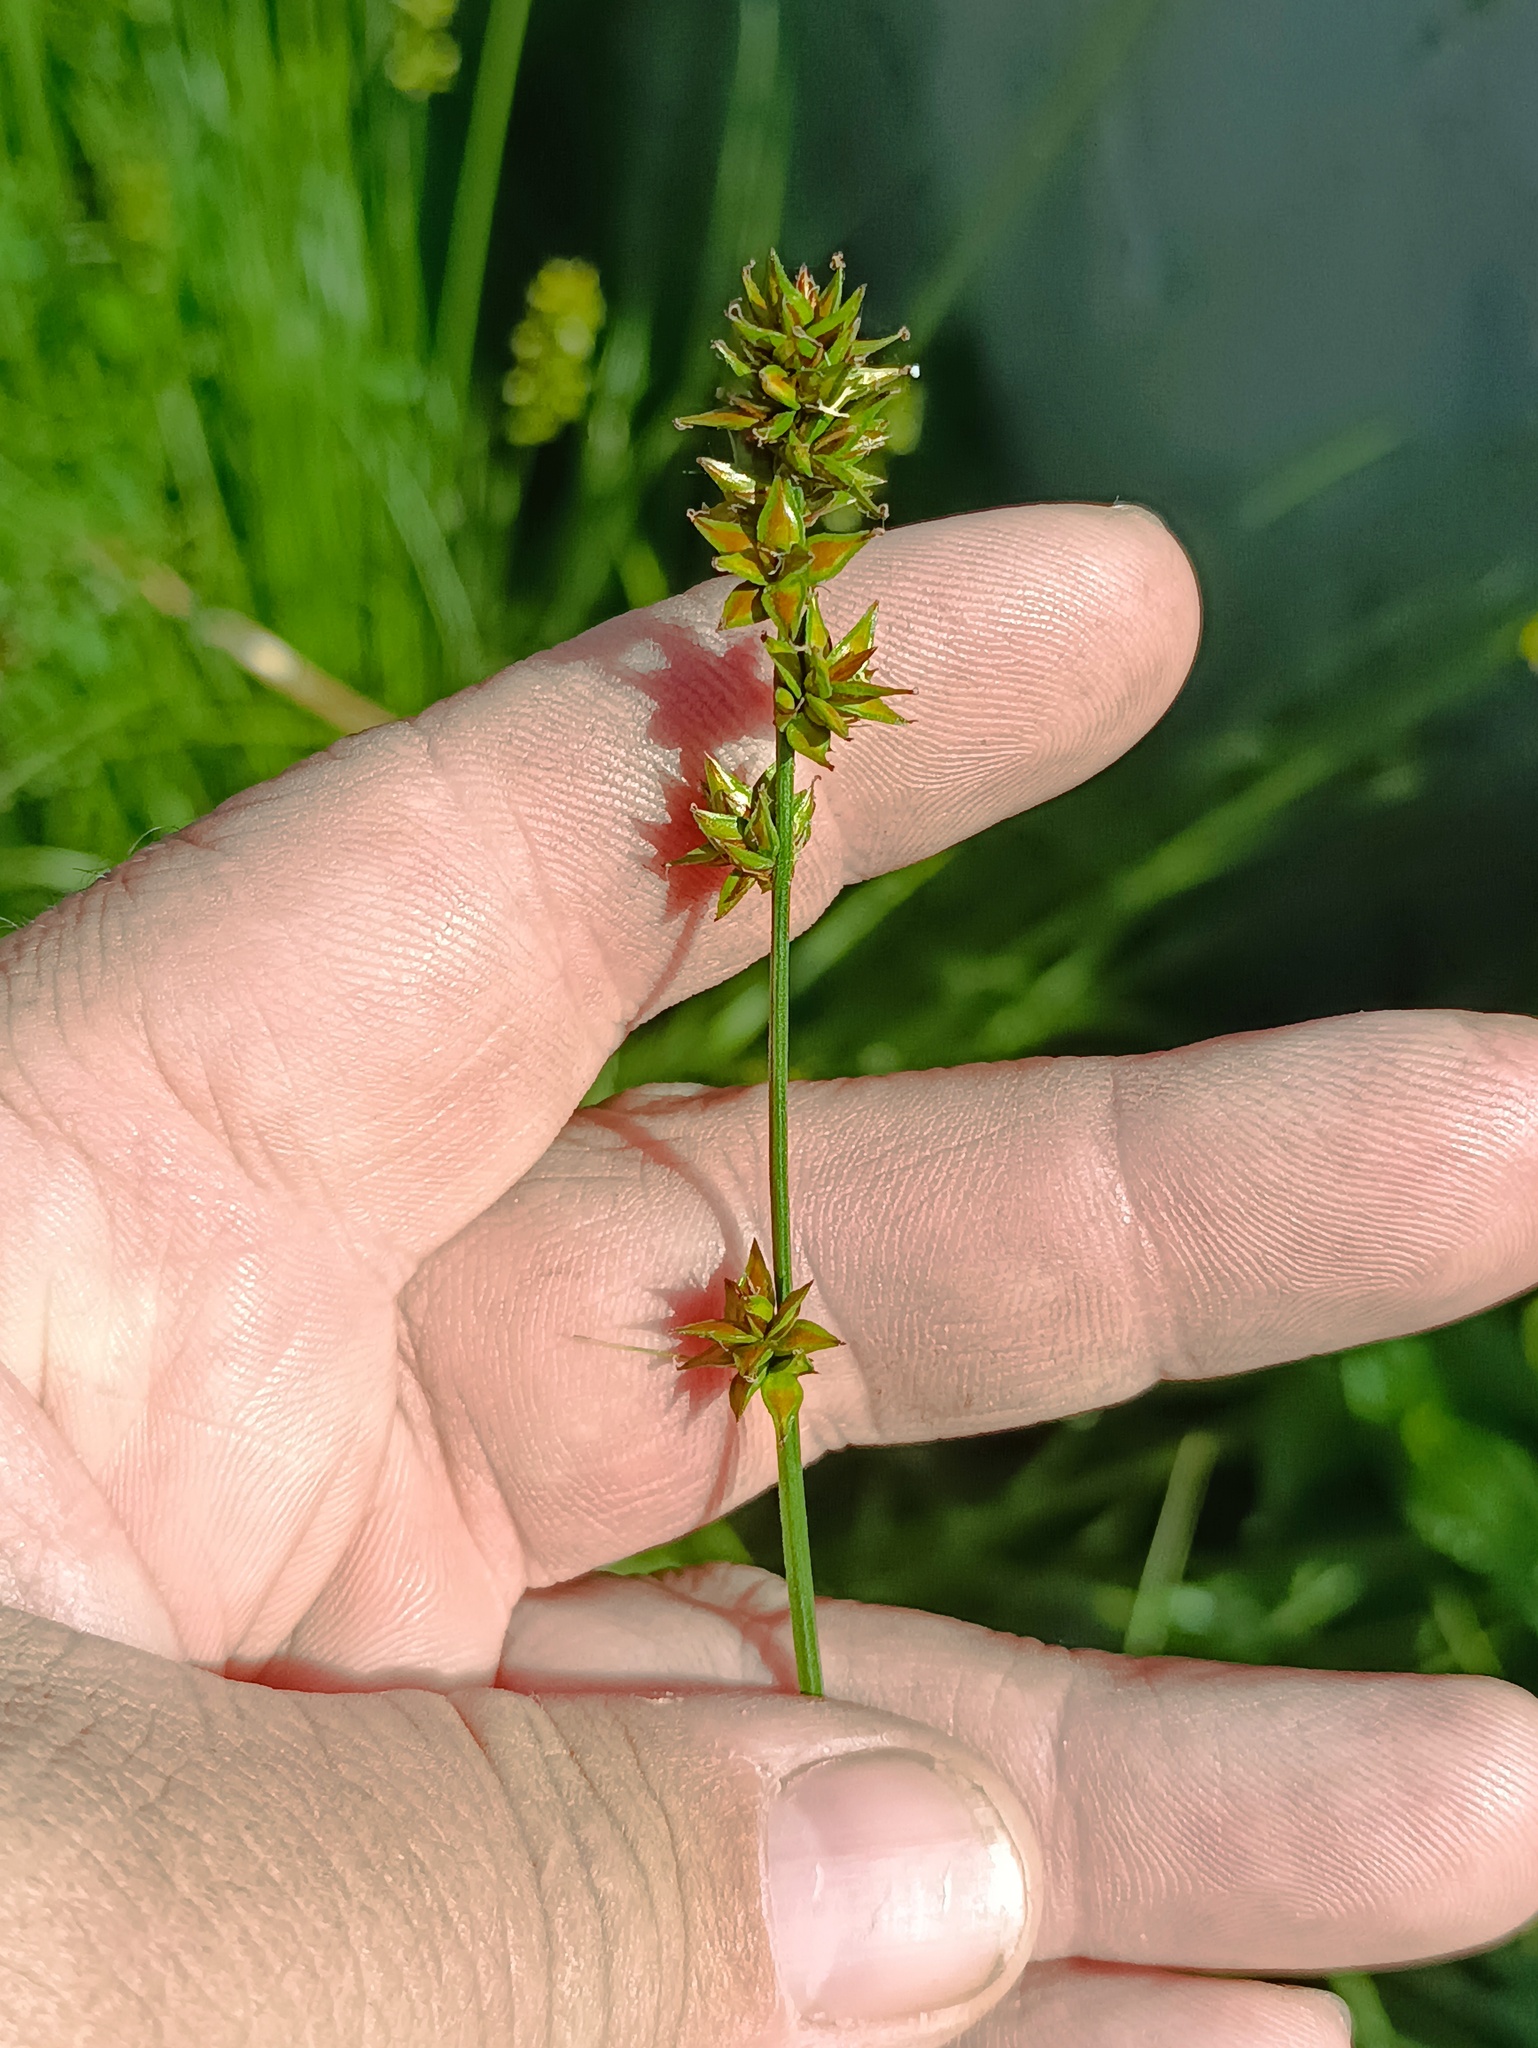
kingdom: Plantae
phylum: Tracheophyta
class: Liliopsida
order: Poales
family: Cyperaceae
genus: Carex
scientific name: Carex spicata
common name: Spiked sedge
